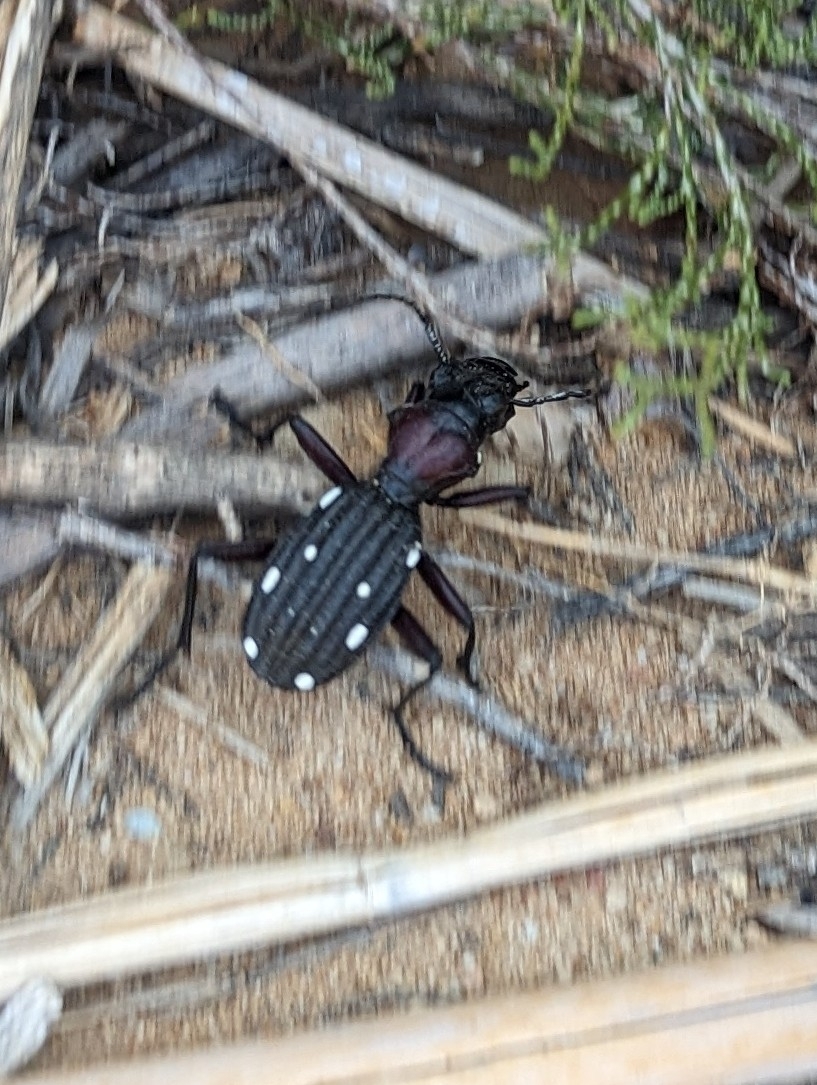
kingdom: Animalia
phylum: Arthropoda
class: Insecta
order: Coleoptera
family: Carabidae
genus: Anthia
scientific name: Anthia decemguttata
